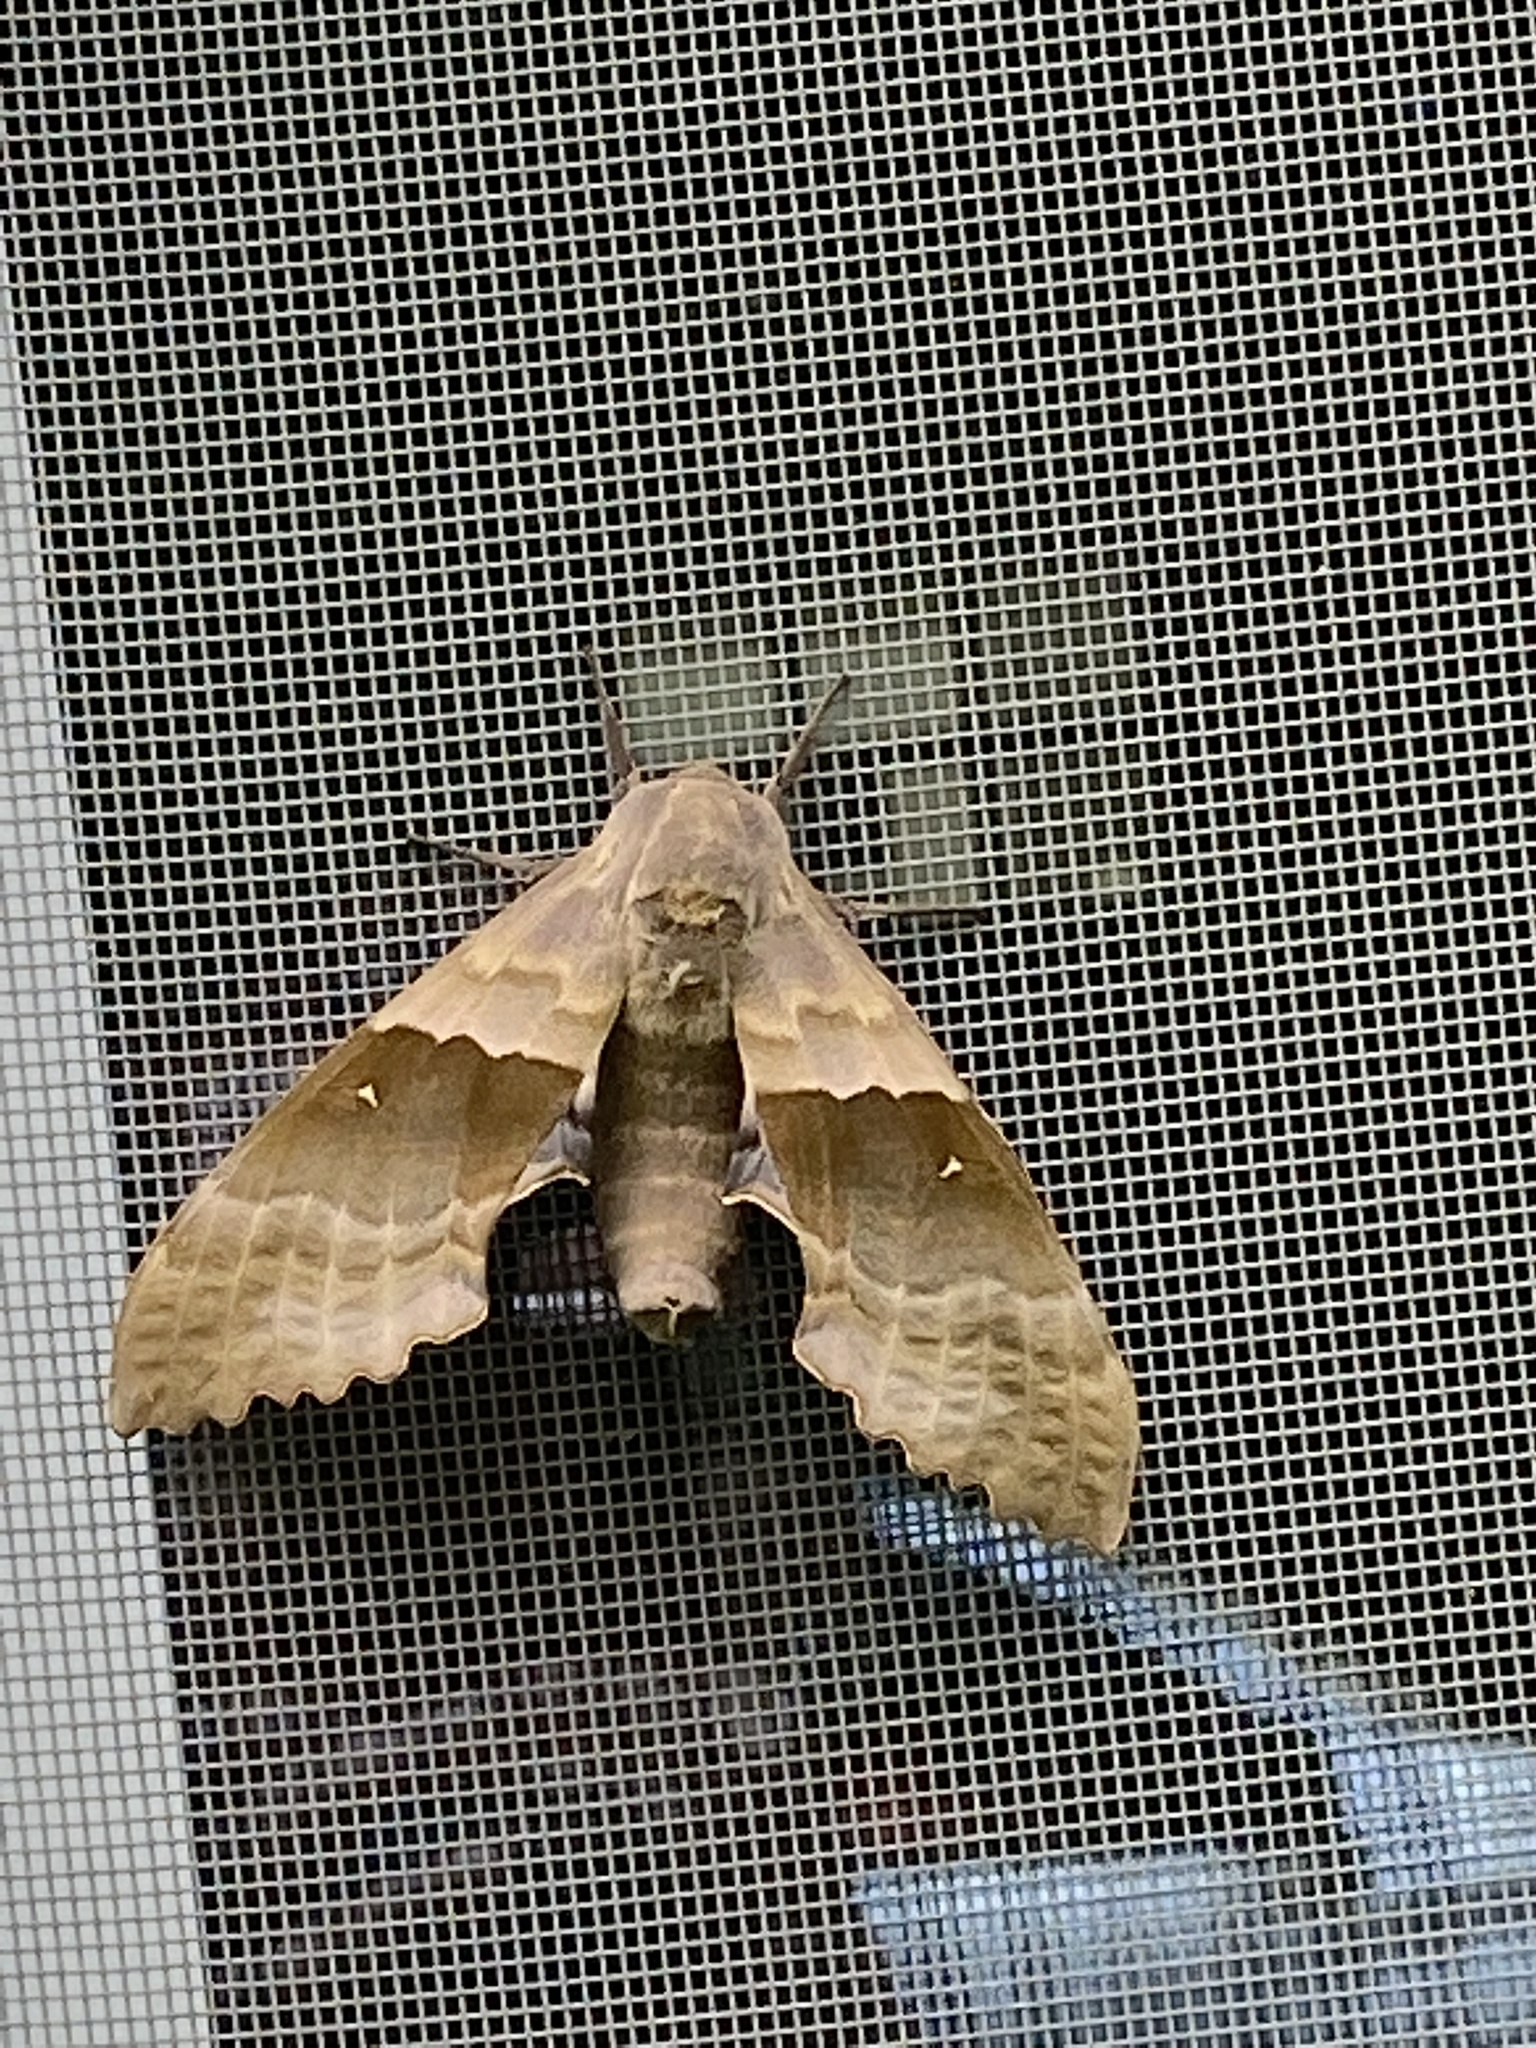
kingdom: Animalia
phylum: Arthropoda
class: Insecta
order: Lepidoptera
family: Sphingidae
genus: Pachysphinx
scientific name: Pachysphinx modesta
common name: Big poplar sphinx
